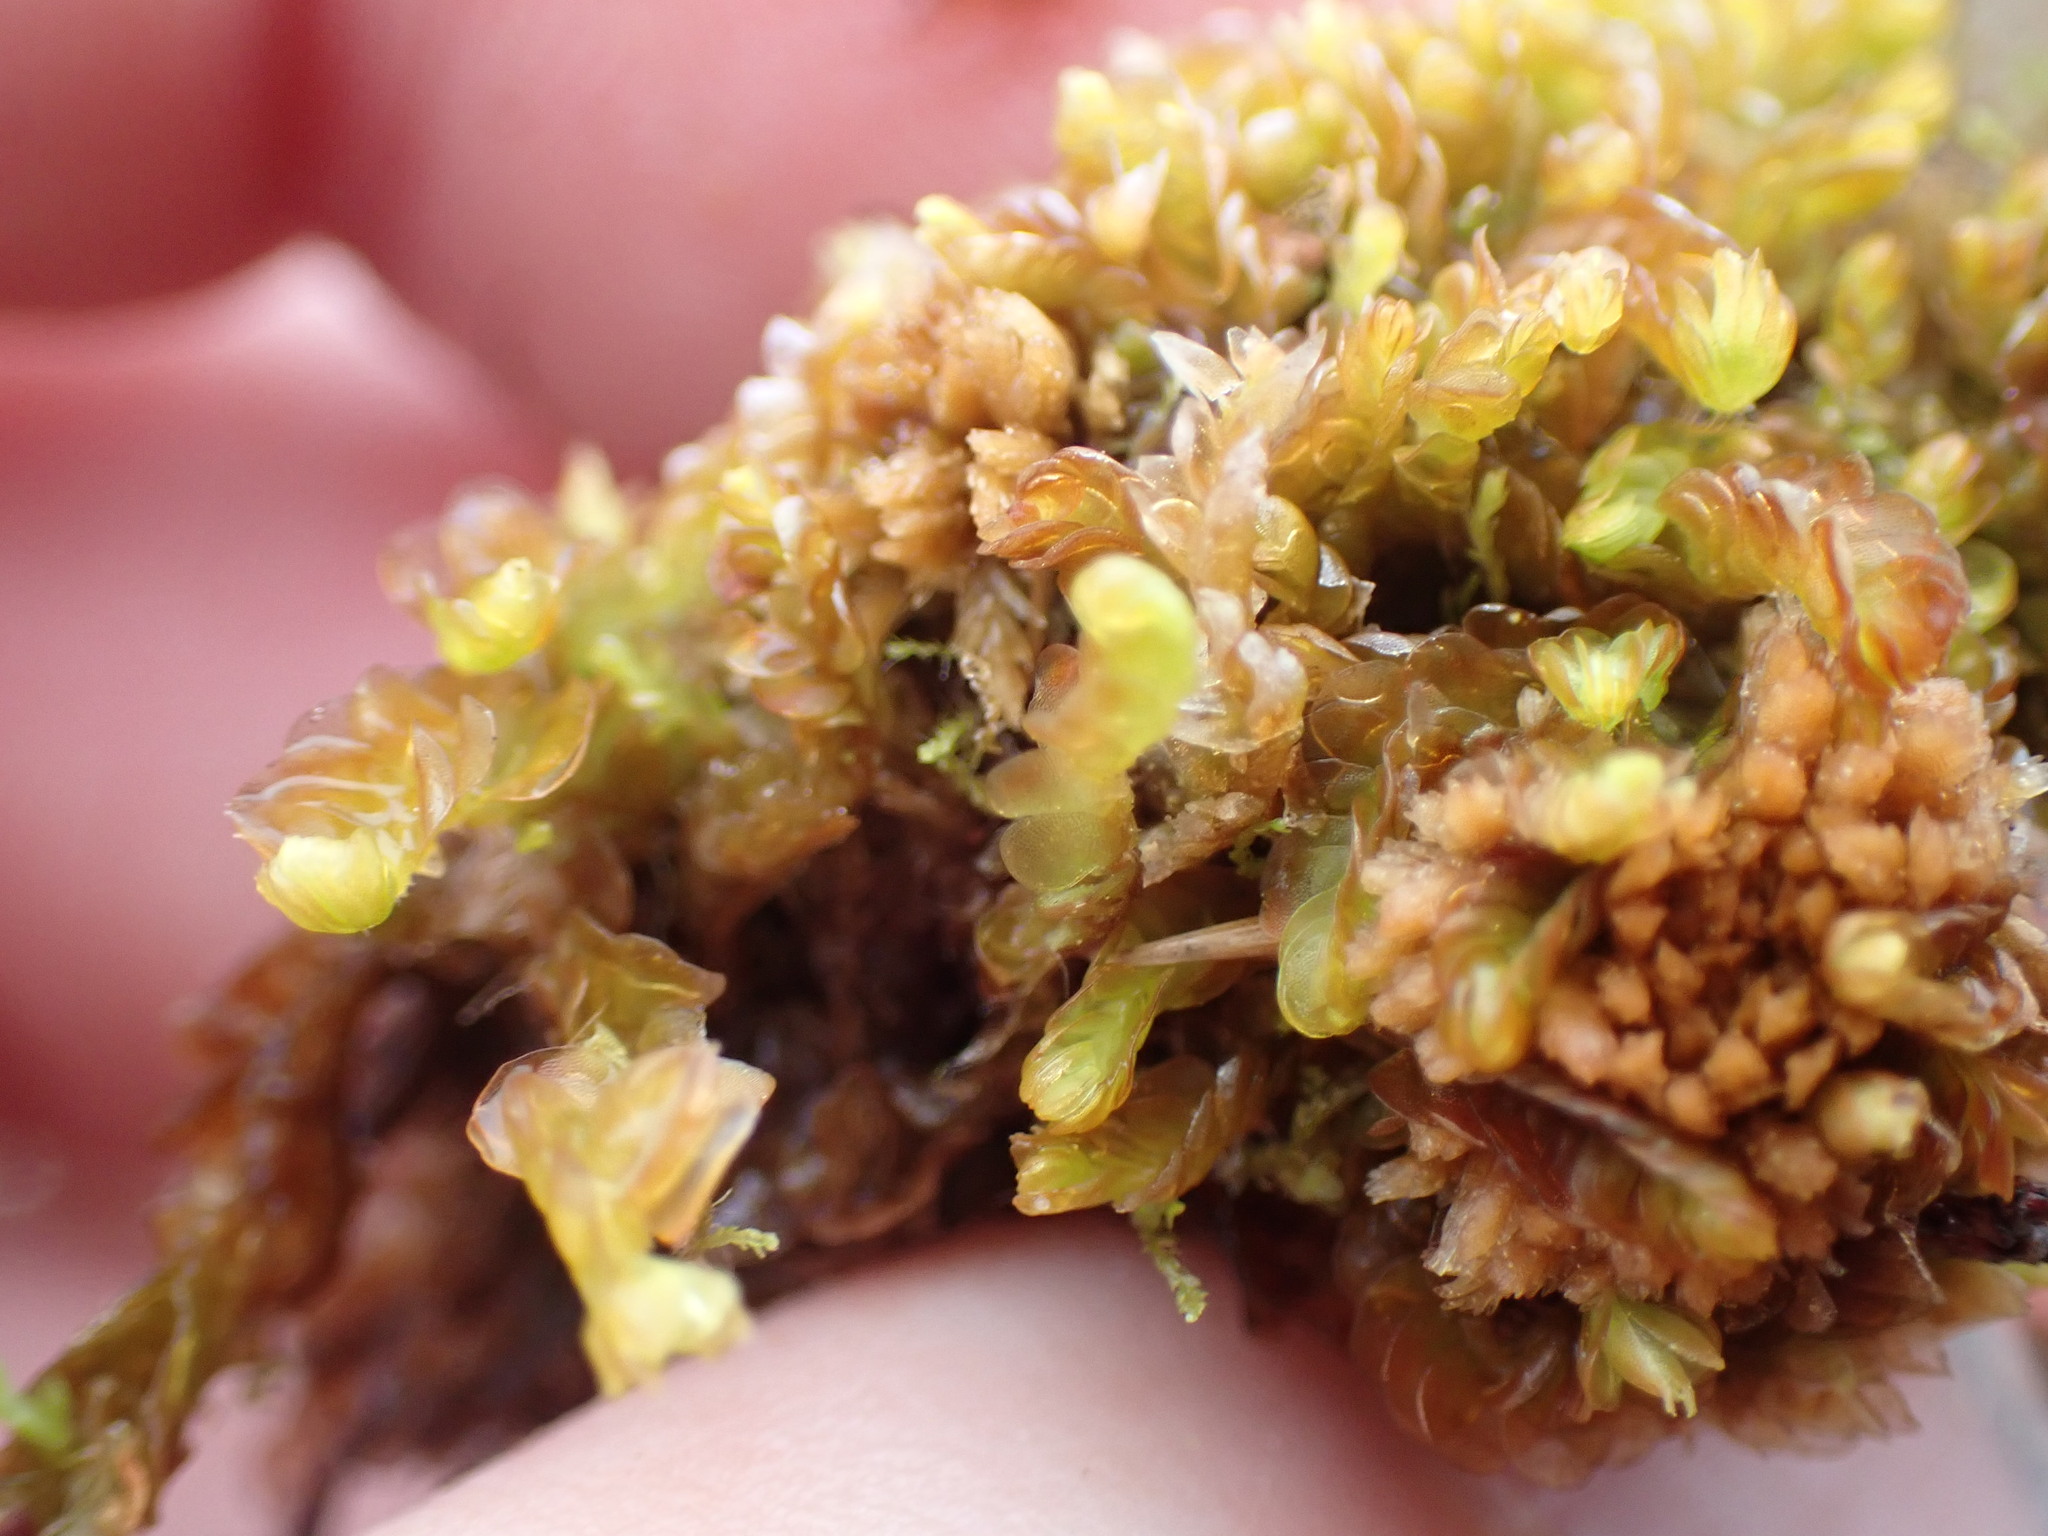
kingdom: Plantae
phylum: Marchantiophyta
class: Jungermanniopsida
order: Jungermanniales
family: Myliaceae
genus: Mylia
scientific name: Mylia anomala
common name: Anomalous flapwort
